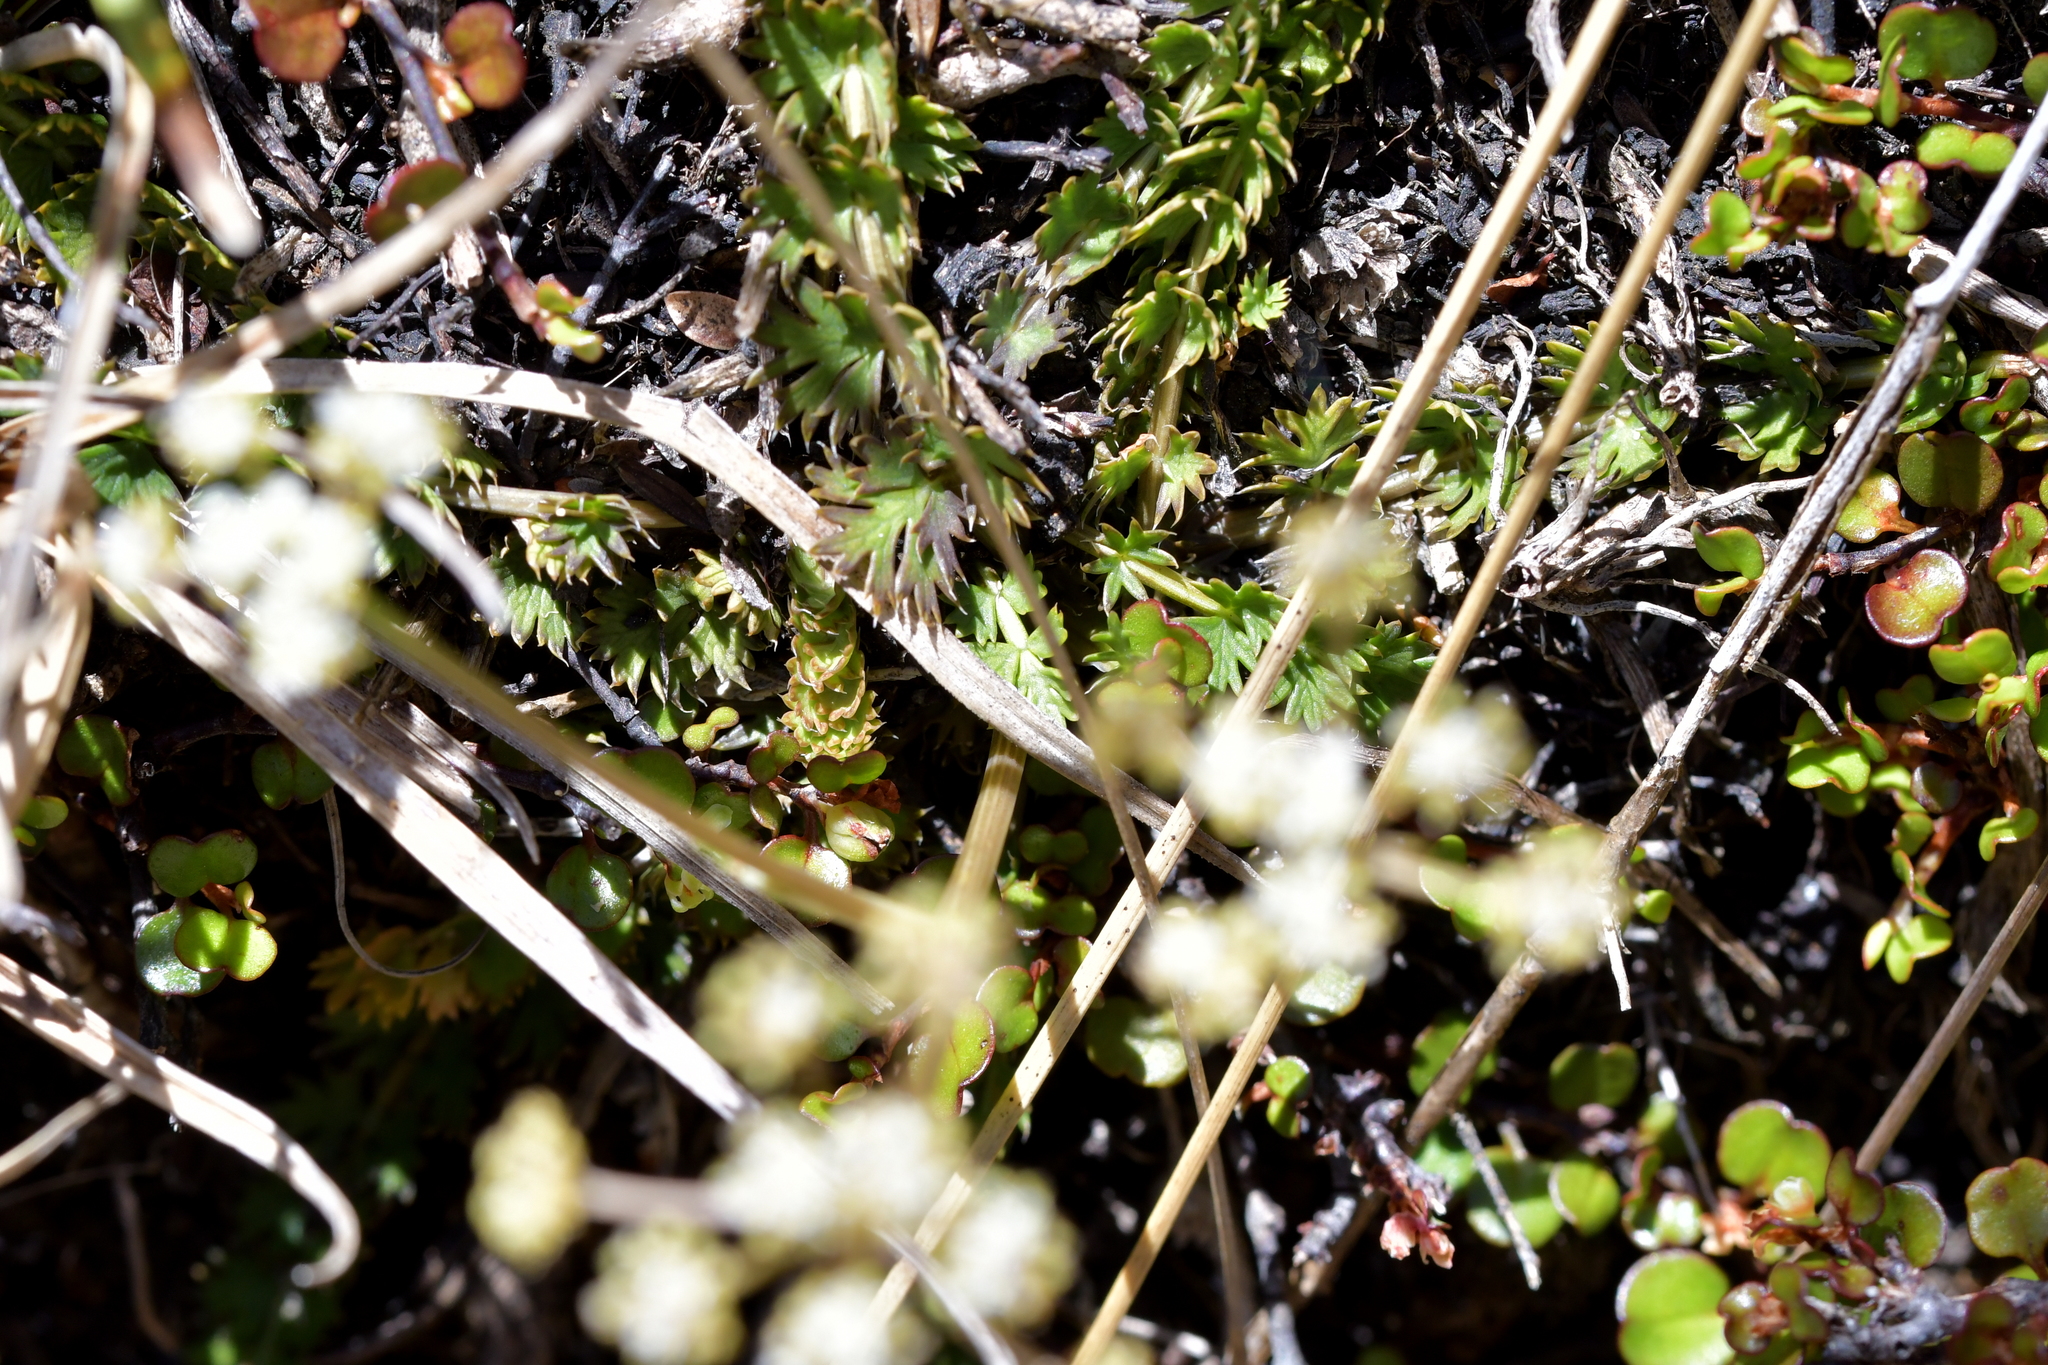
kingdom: Plantae
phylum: Tracheophyta
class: Magnoliopsida
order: Apiales
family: Apiaceae
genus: Anisotome
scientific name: Anisotome aromatica
